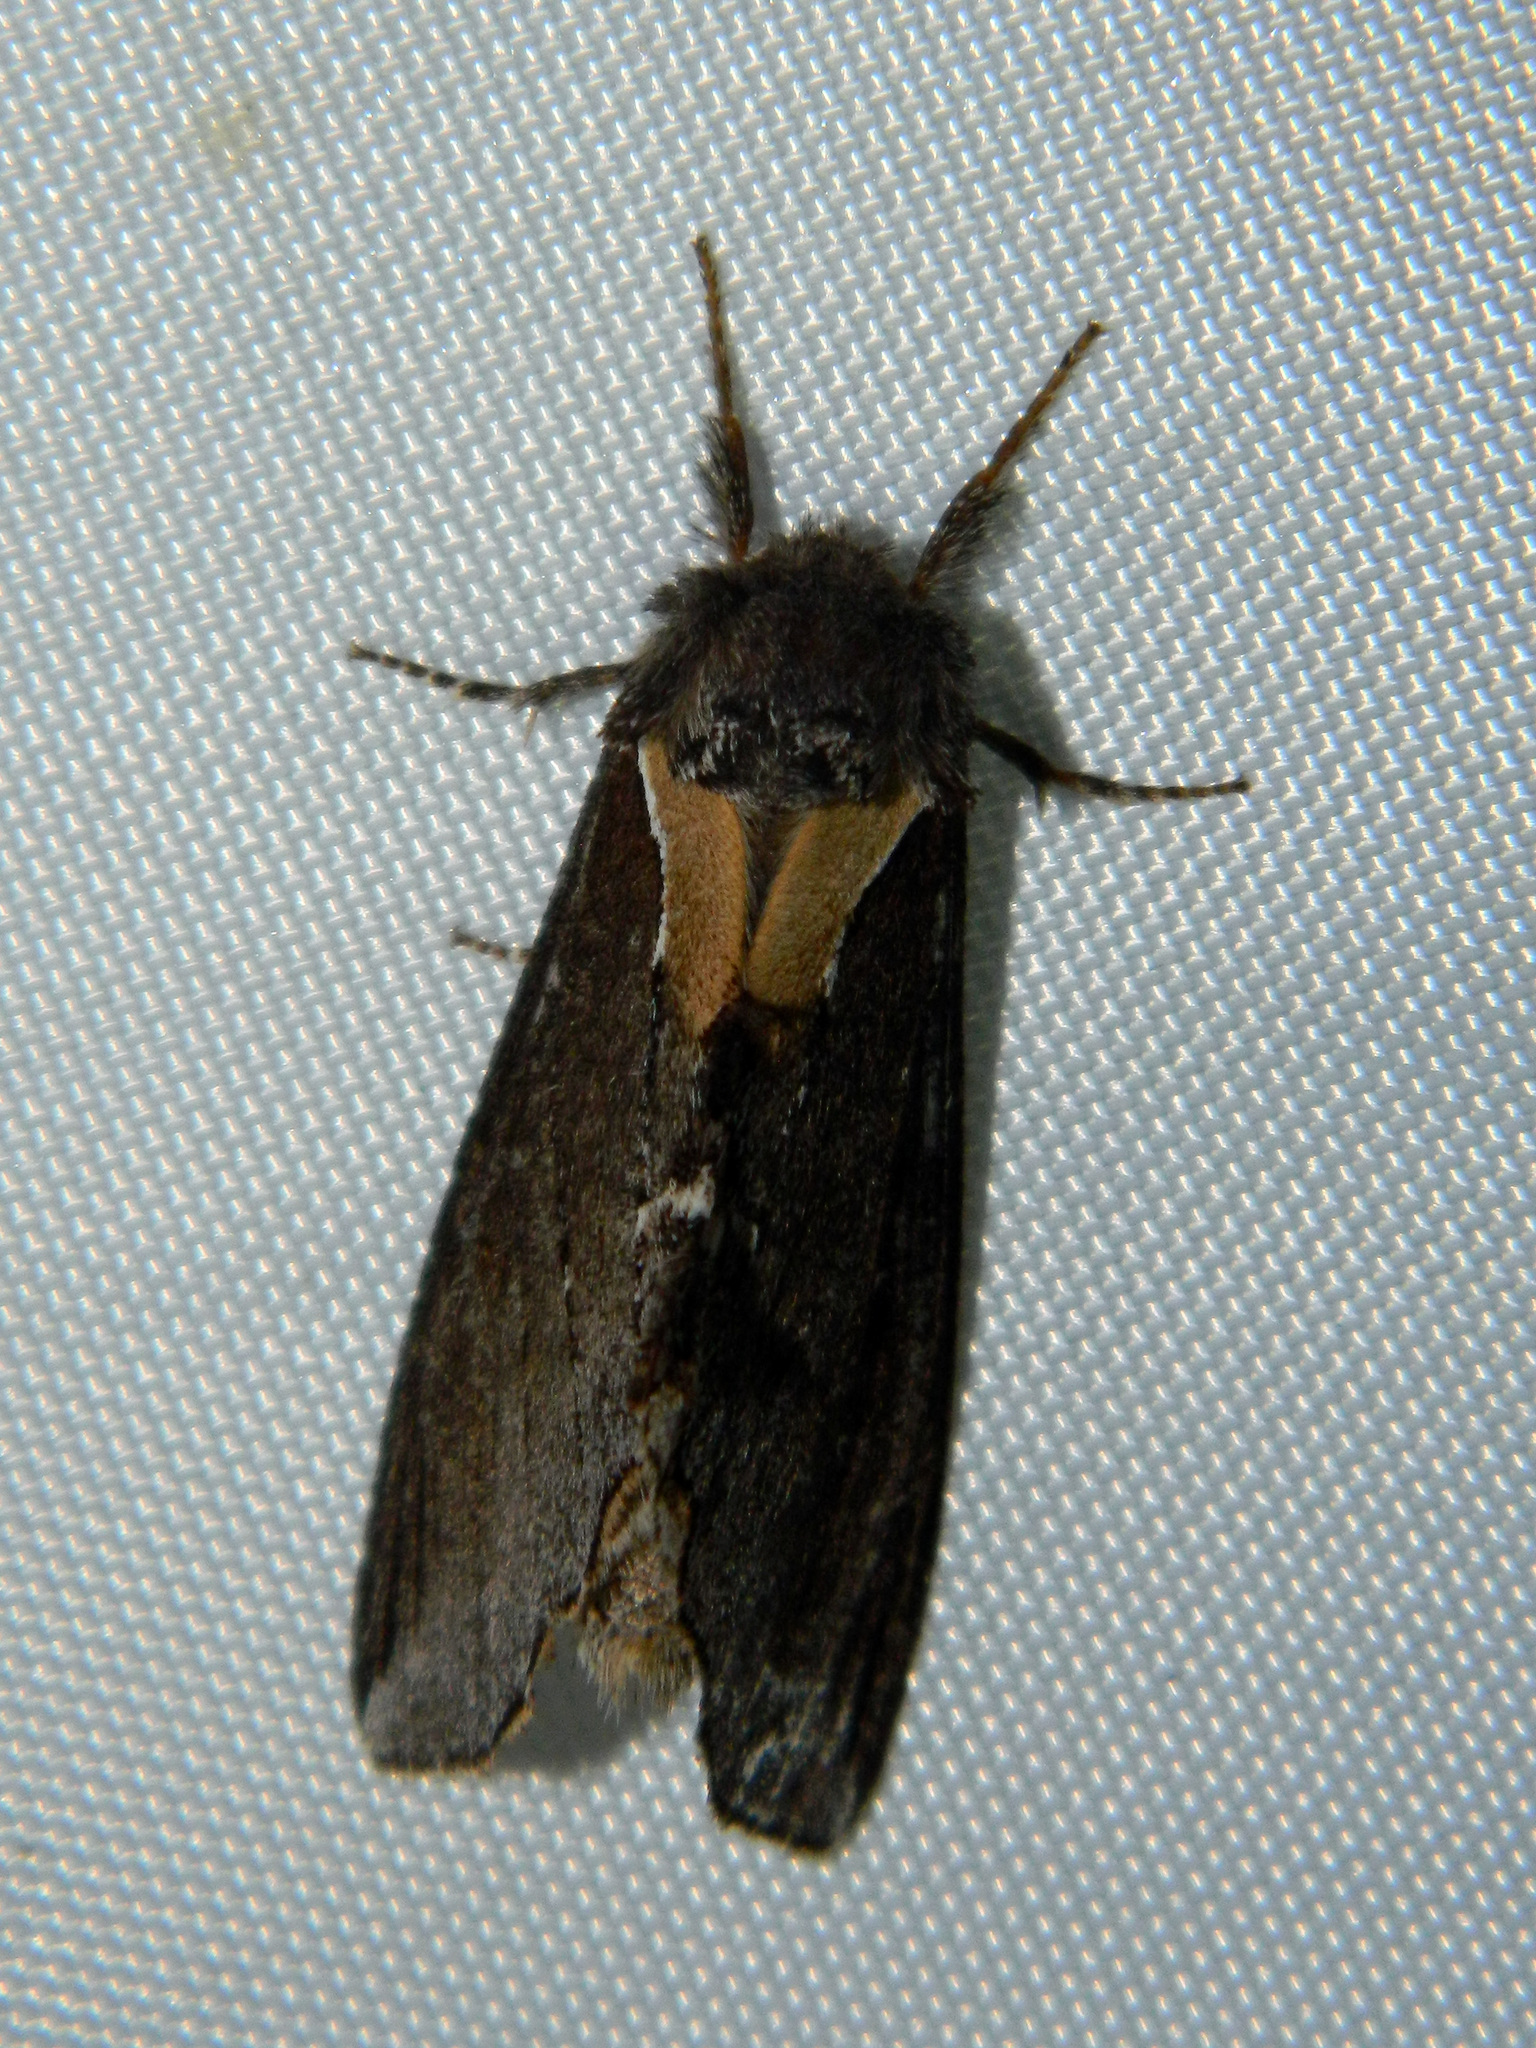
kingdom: Animalia
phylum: Arthropoda
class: Insecta
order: Lepidoptera
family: Notodontidae
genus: Pheosidea
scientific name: Pheosidea elegans
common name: Elegant prominent
